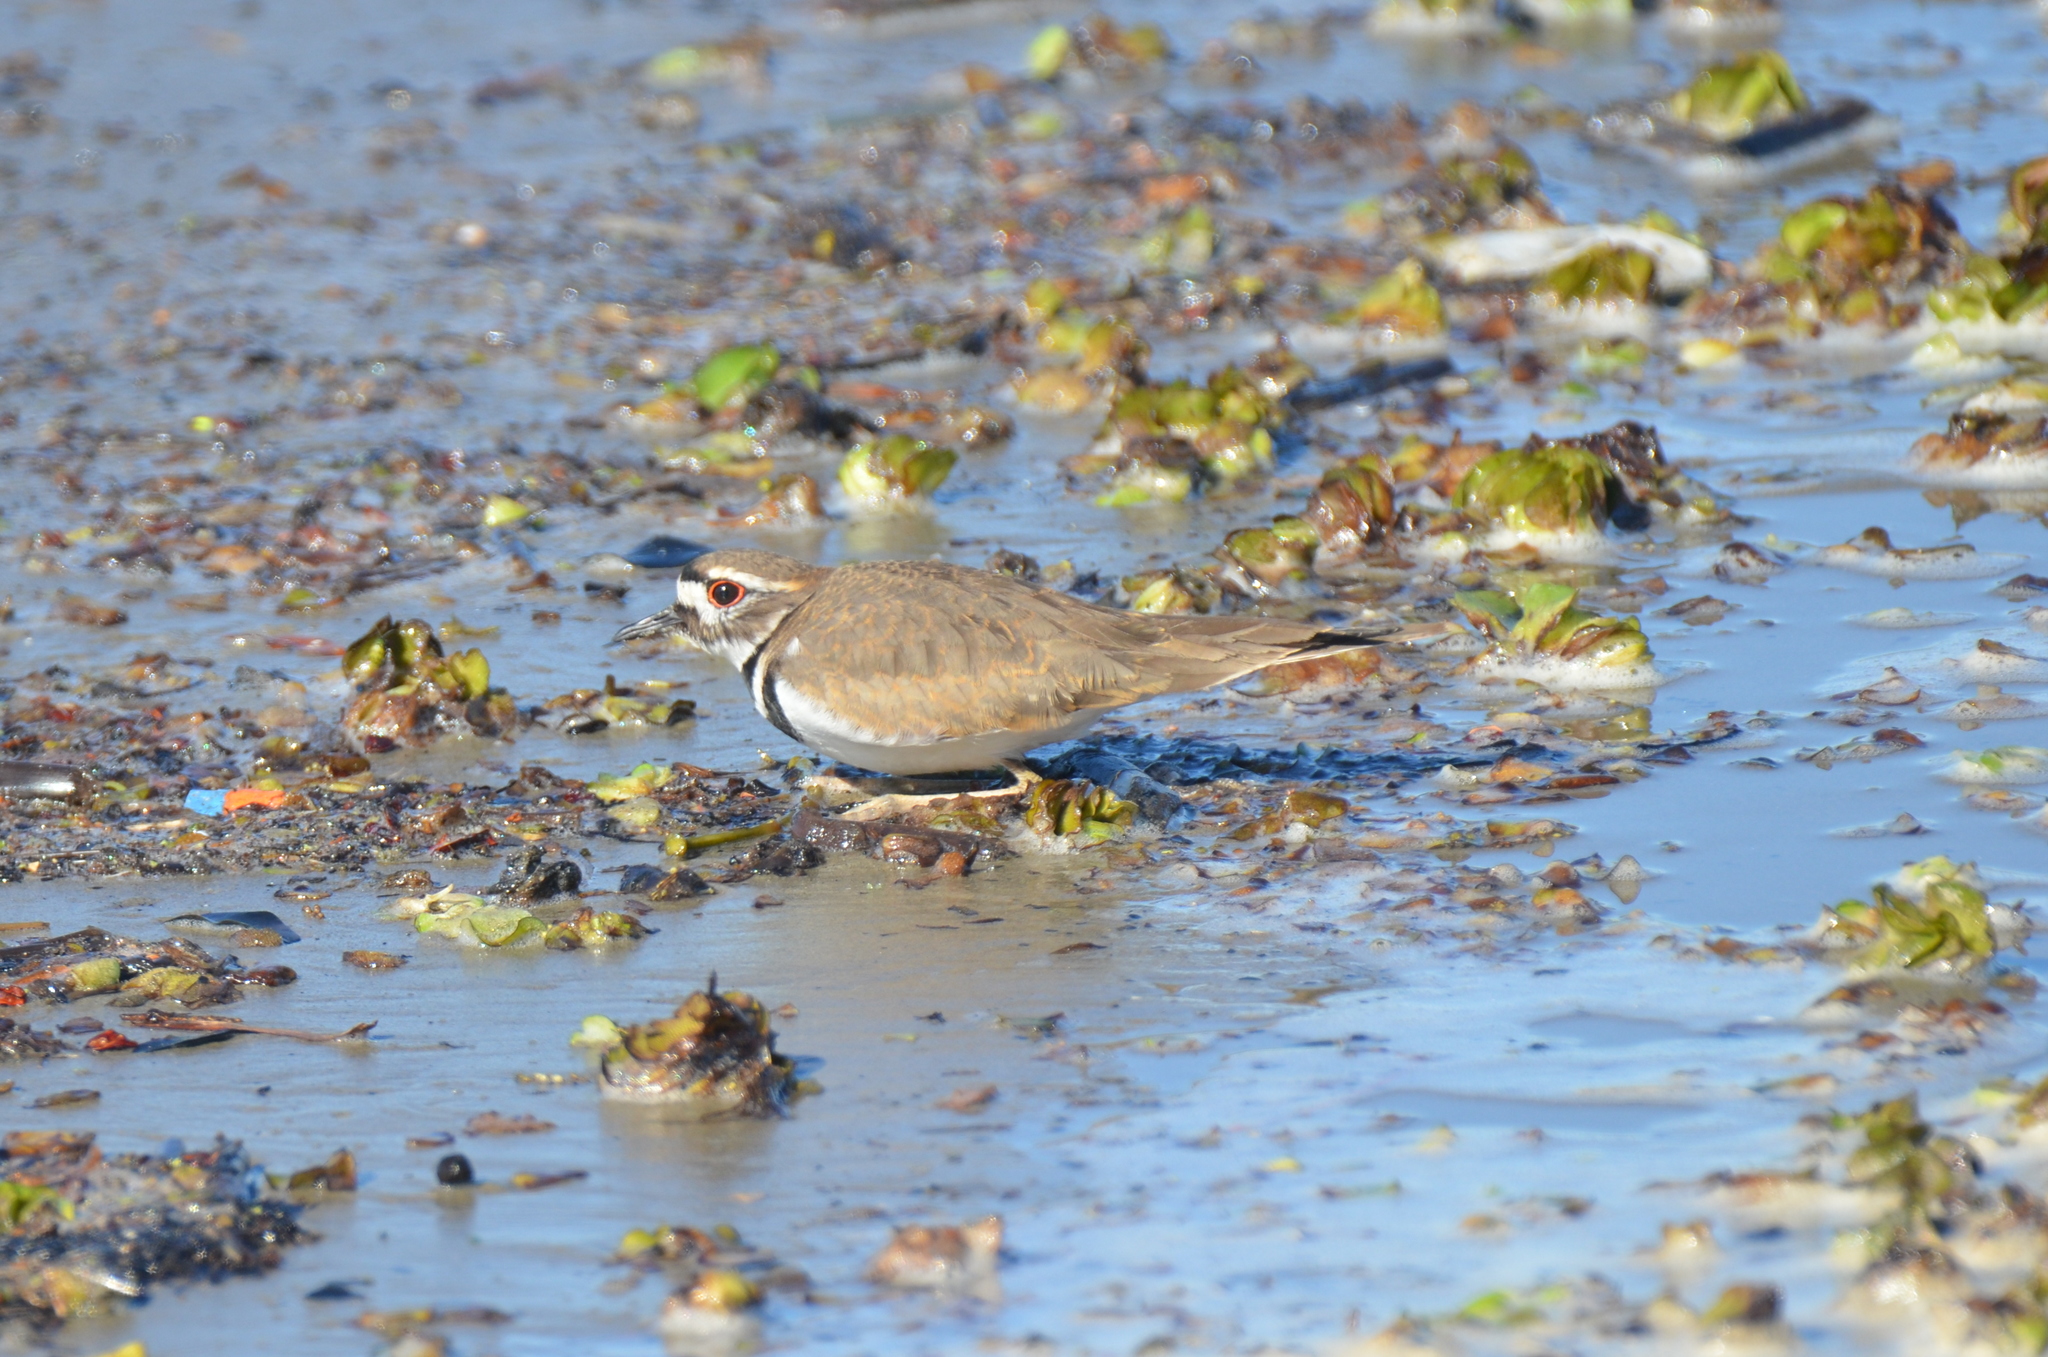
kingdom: Animalia
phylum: Chordata
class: Aves
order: Charadriiformes
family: Charadriidae
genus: Charadrius
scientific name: Charadrius vociferus
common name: Killdeer
